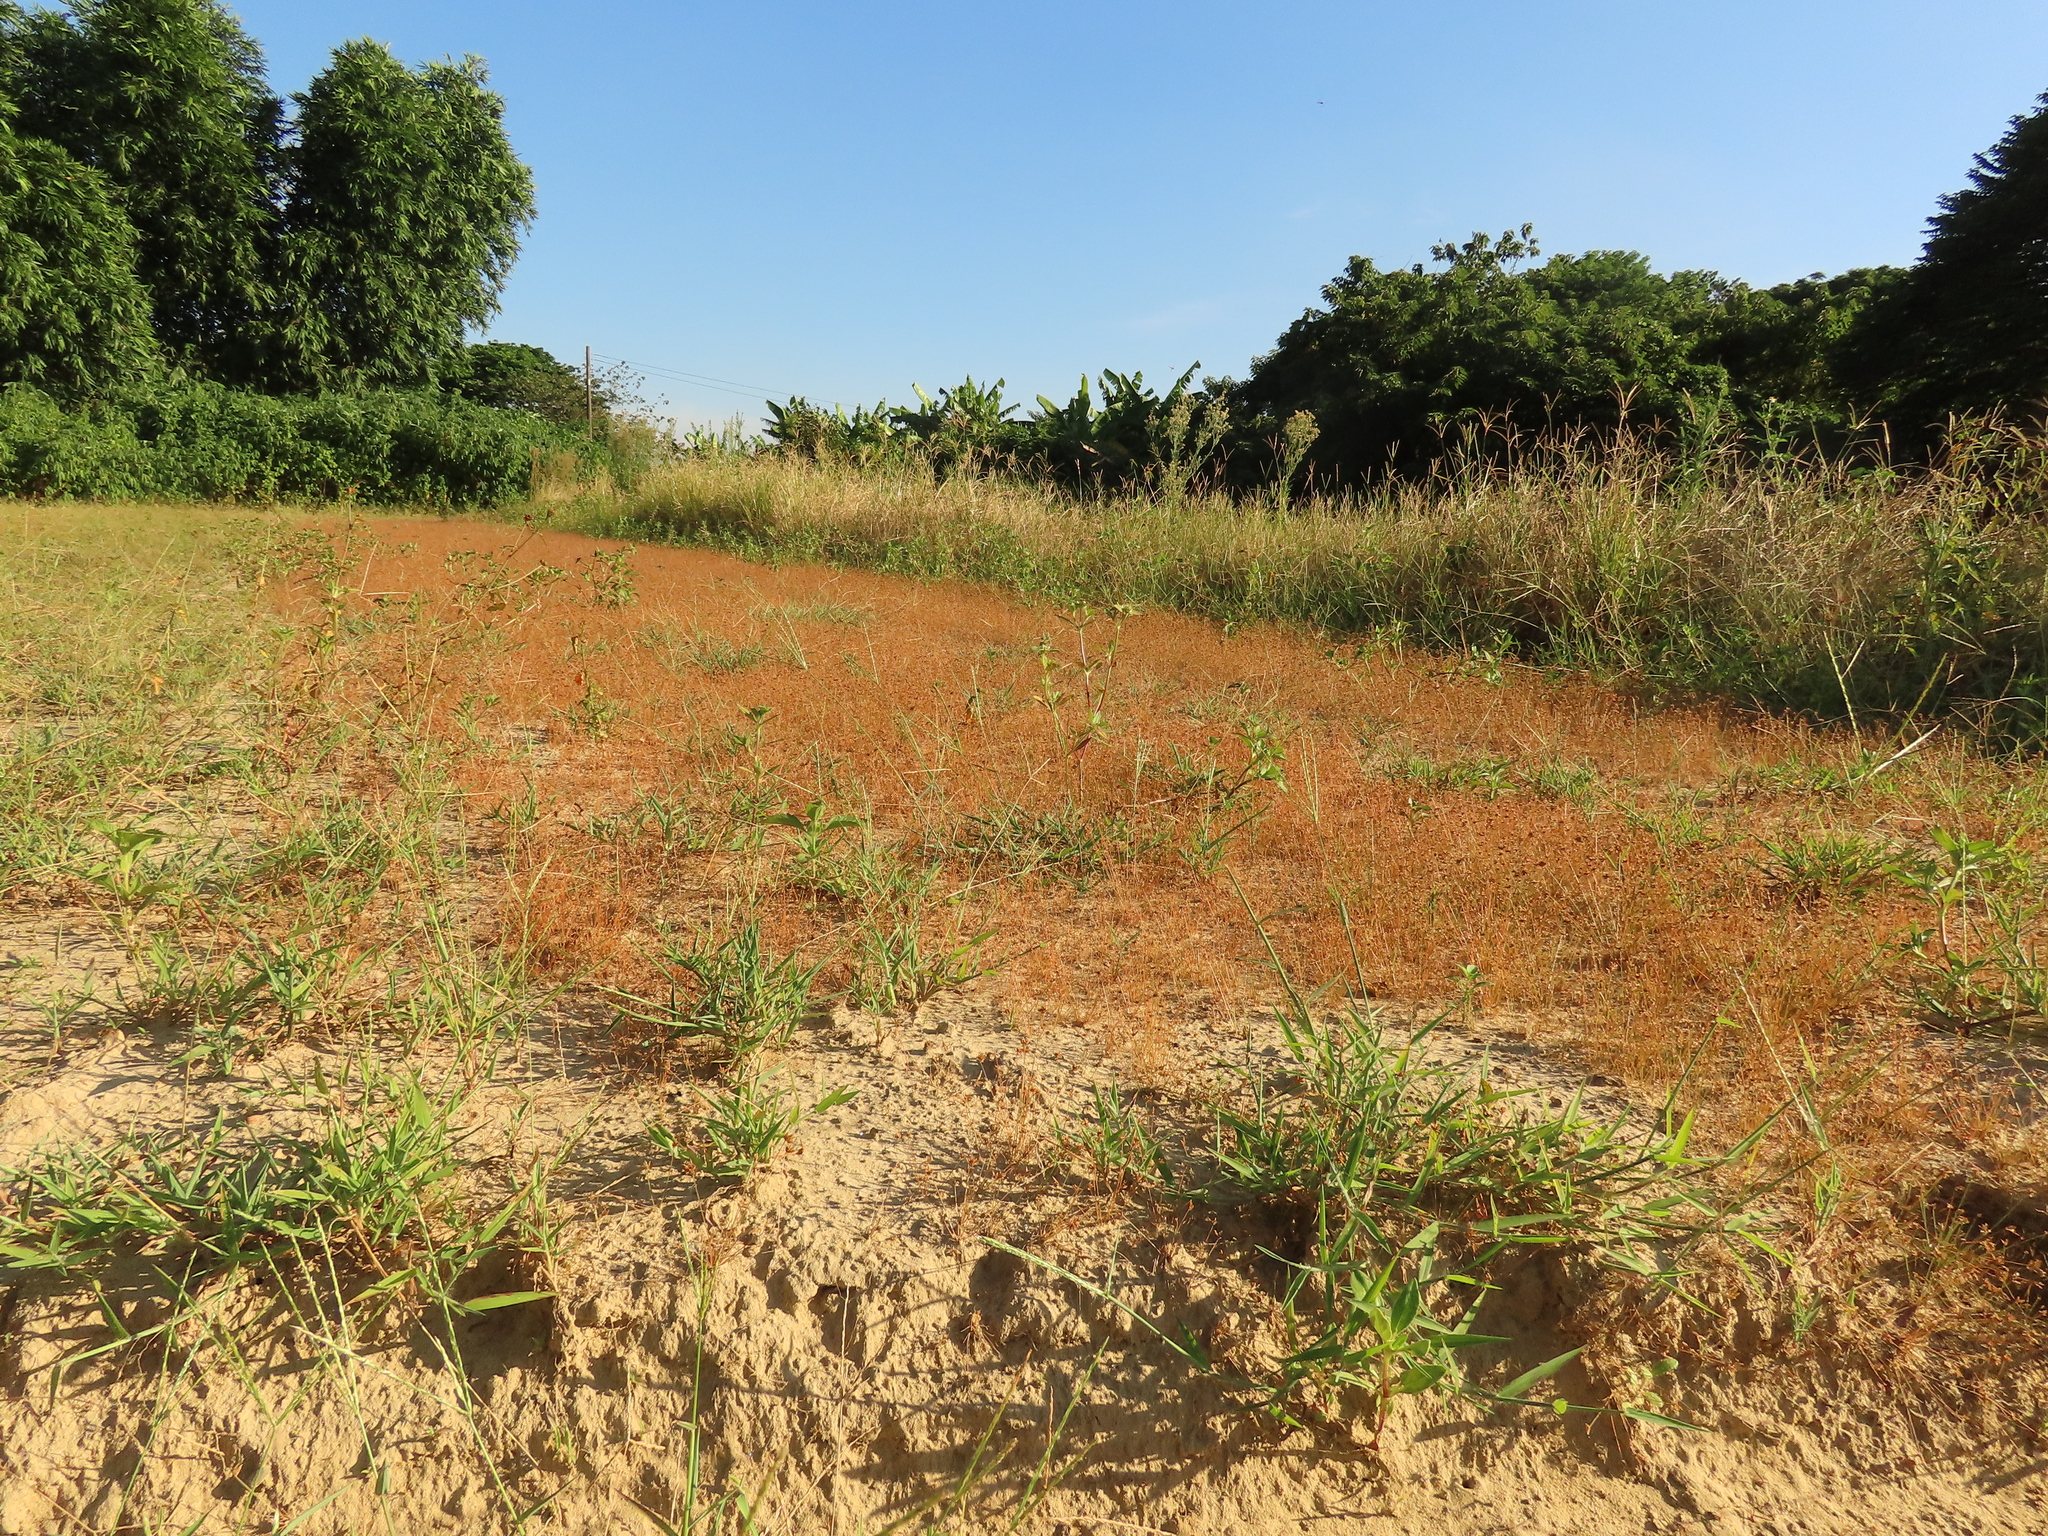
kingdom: Plantae
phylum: Tracheophyta
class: Liliopsida
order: Poales
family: Cyperaceae
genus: Bulbostylis
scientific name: Bulbostylis barbata
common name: Watergrass
